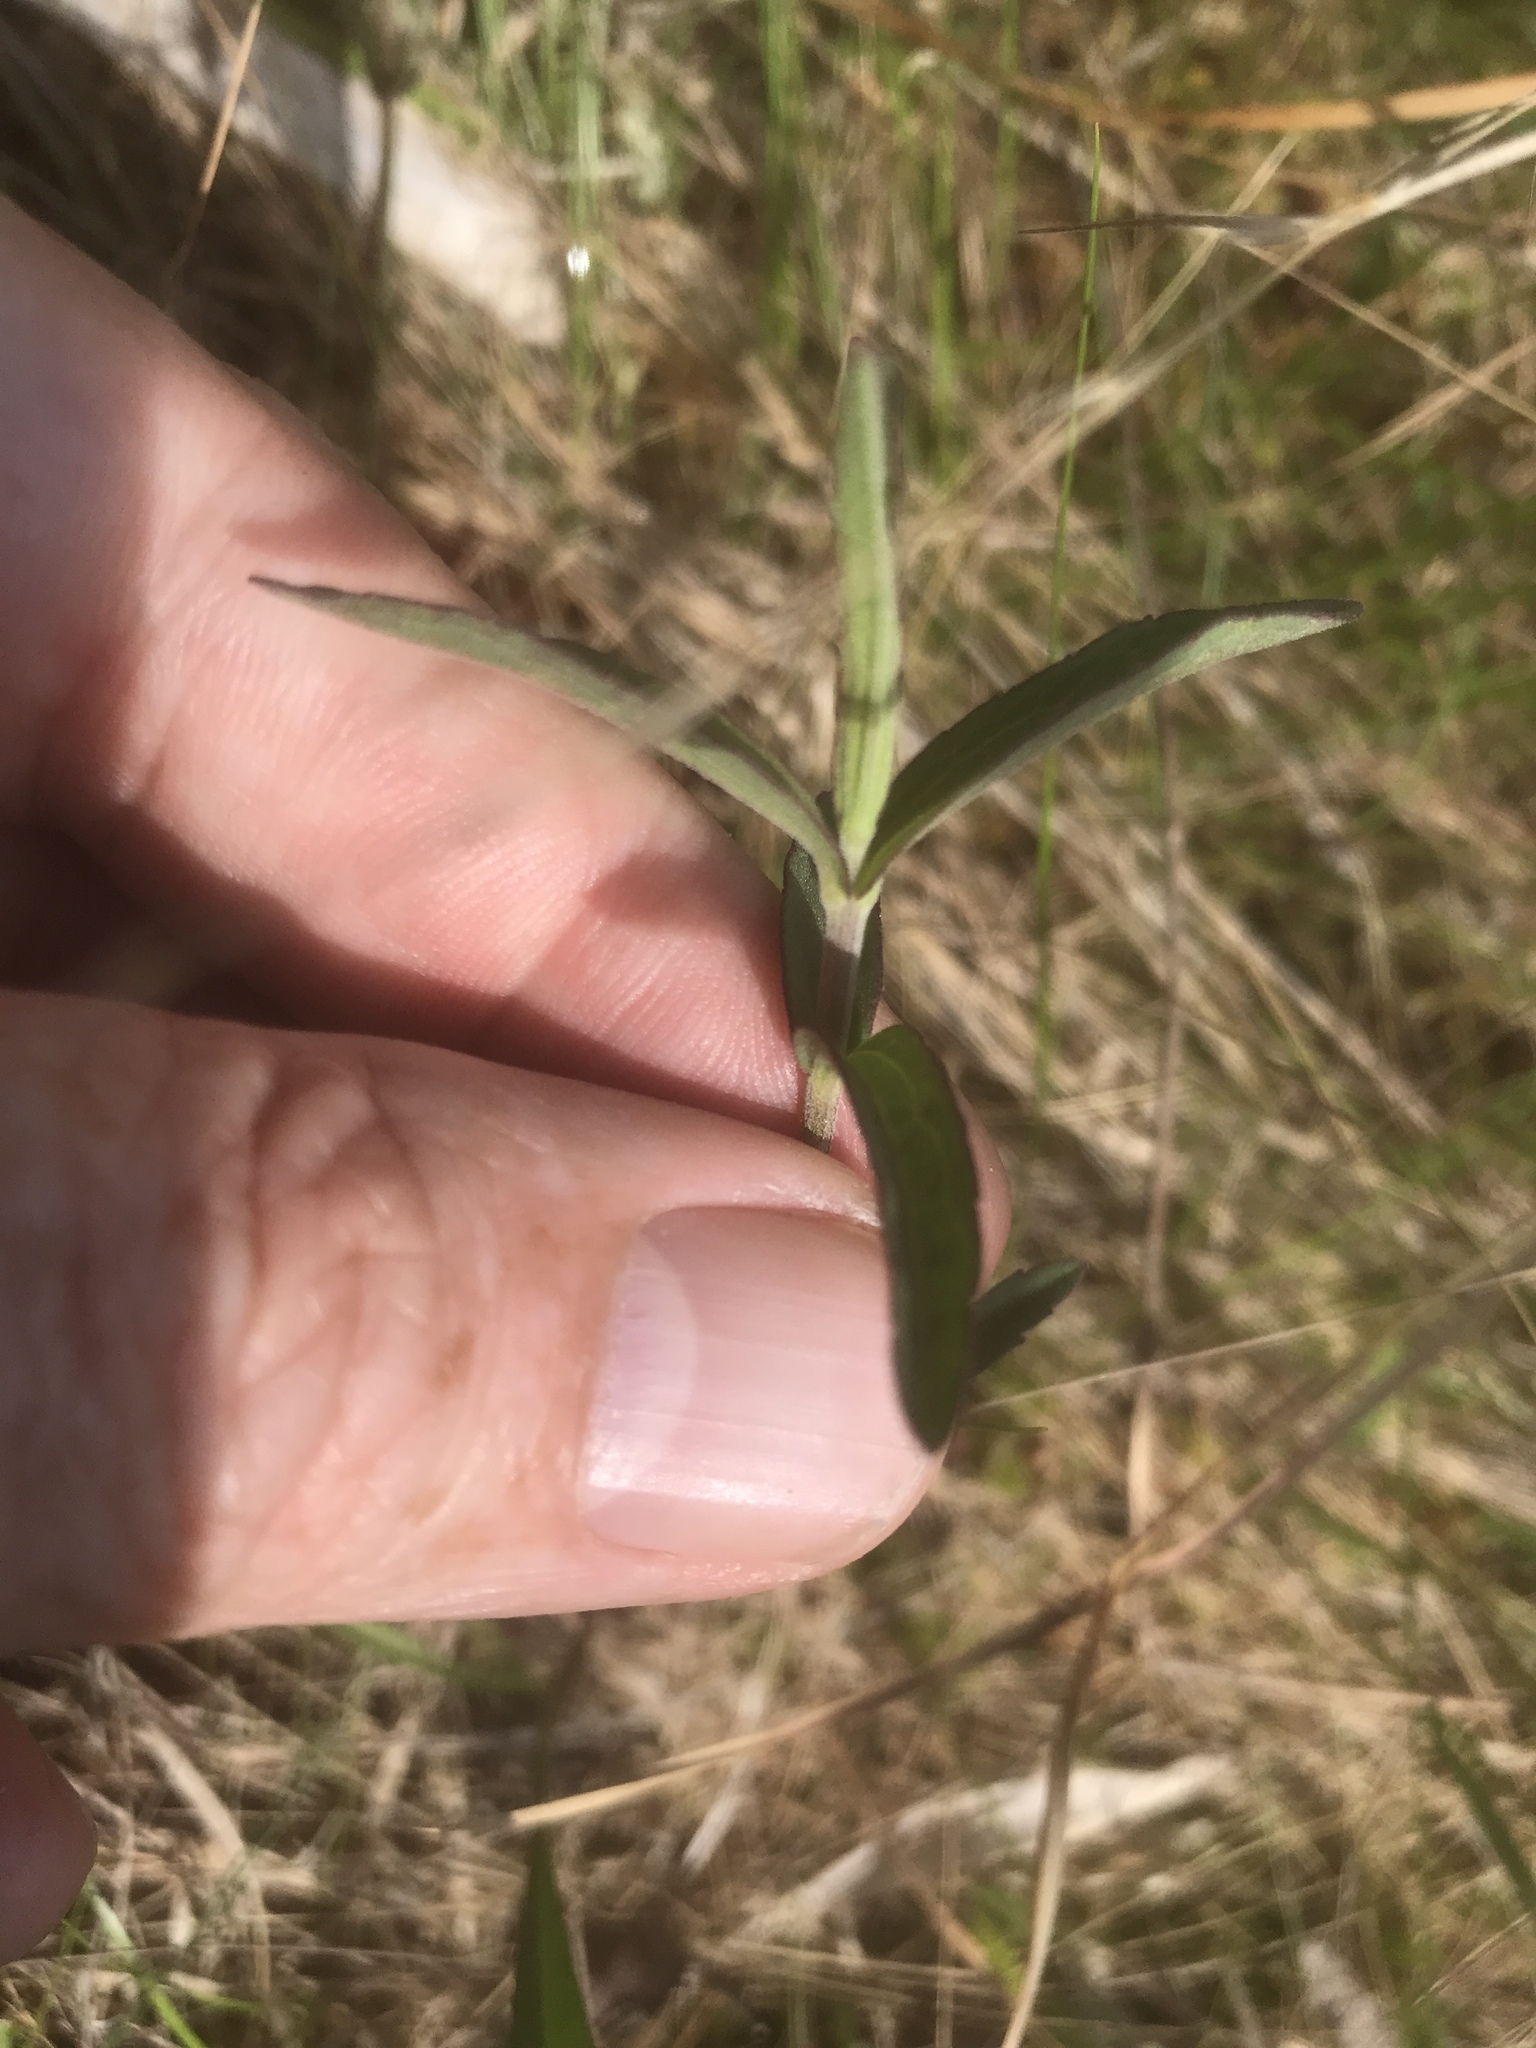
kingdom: Plantae
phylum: Tracheophyta
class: Magnoliopsida
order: Asterales
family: Asteraceae
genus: Eupatorium
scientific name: Eupatorium leucolepis
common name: Justiceweed
